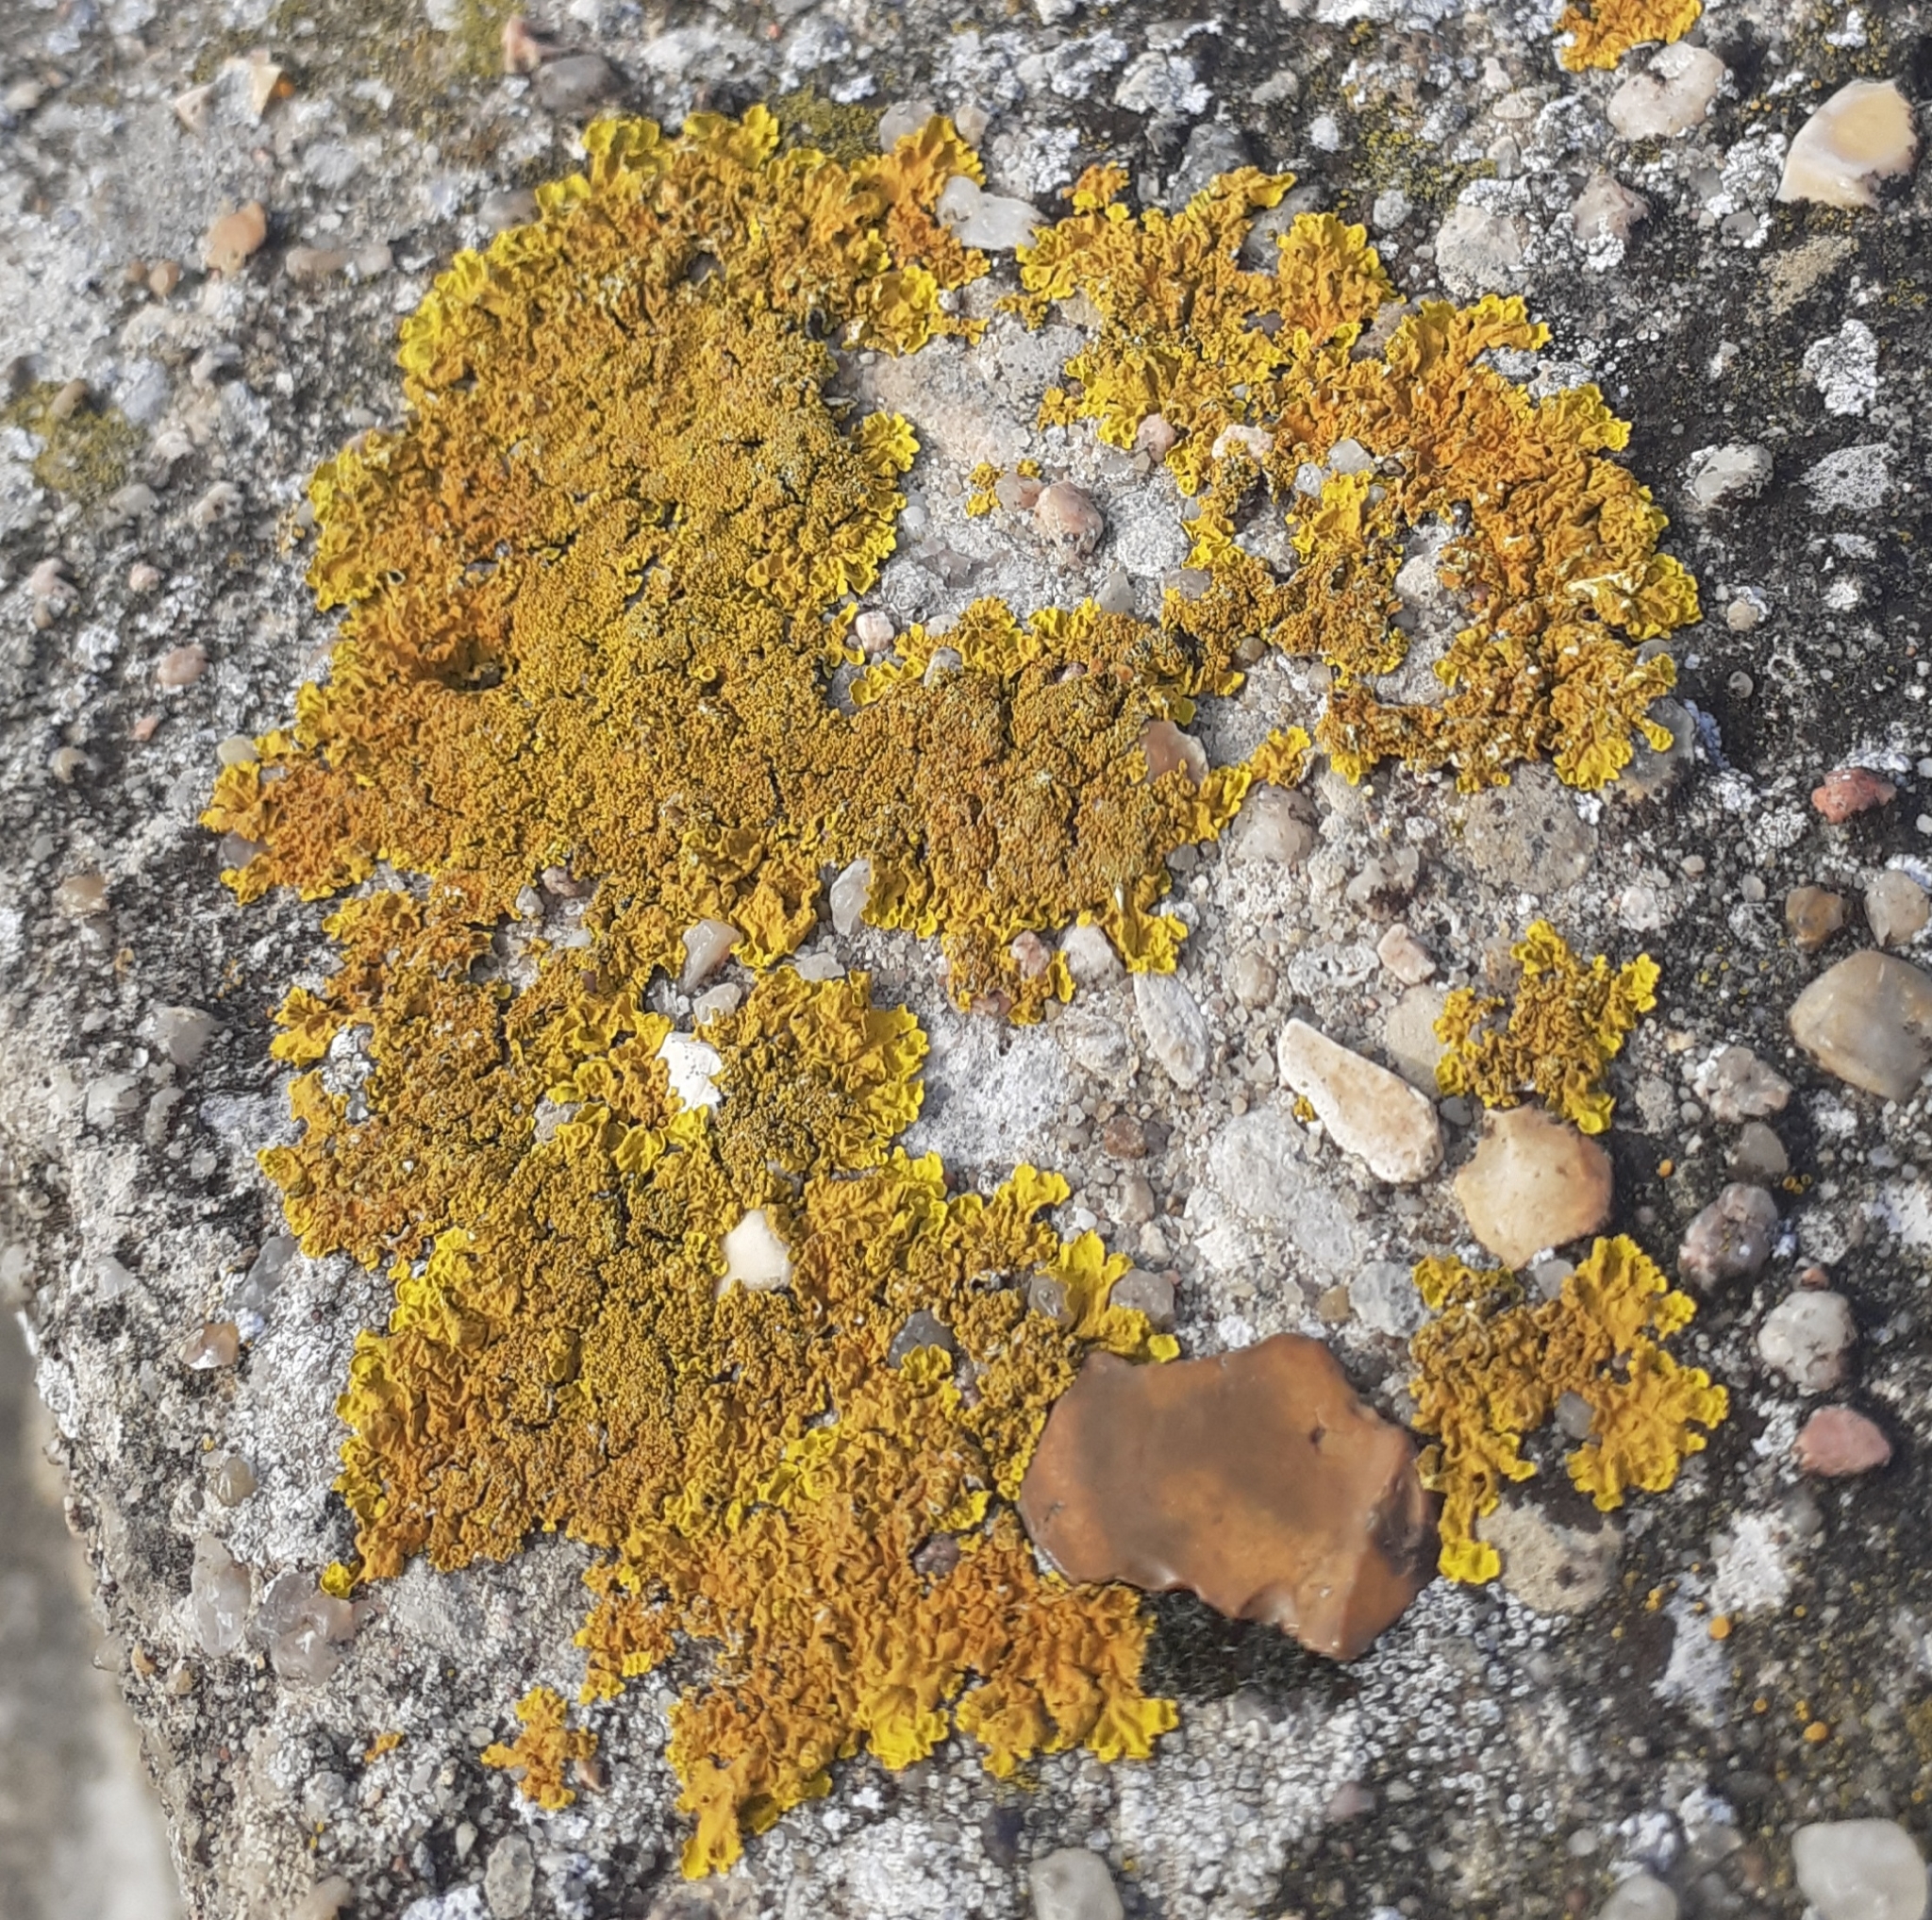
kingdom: Fungi
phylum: Ascomycota
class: Lecanoromycetes
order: Teloschistales
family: Teloschistaceae
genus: Xanthoria
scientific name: Xanthoria calcicola
